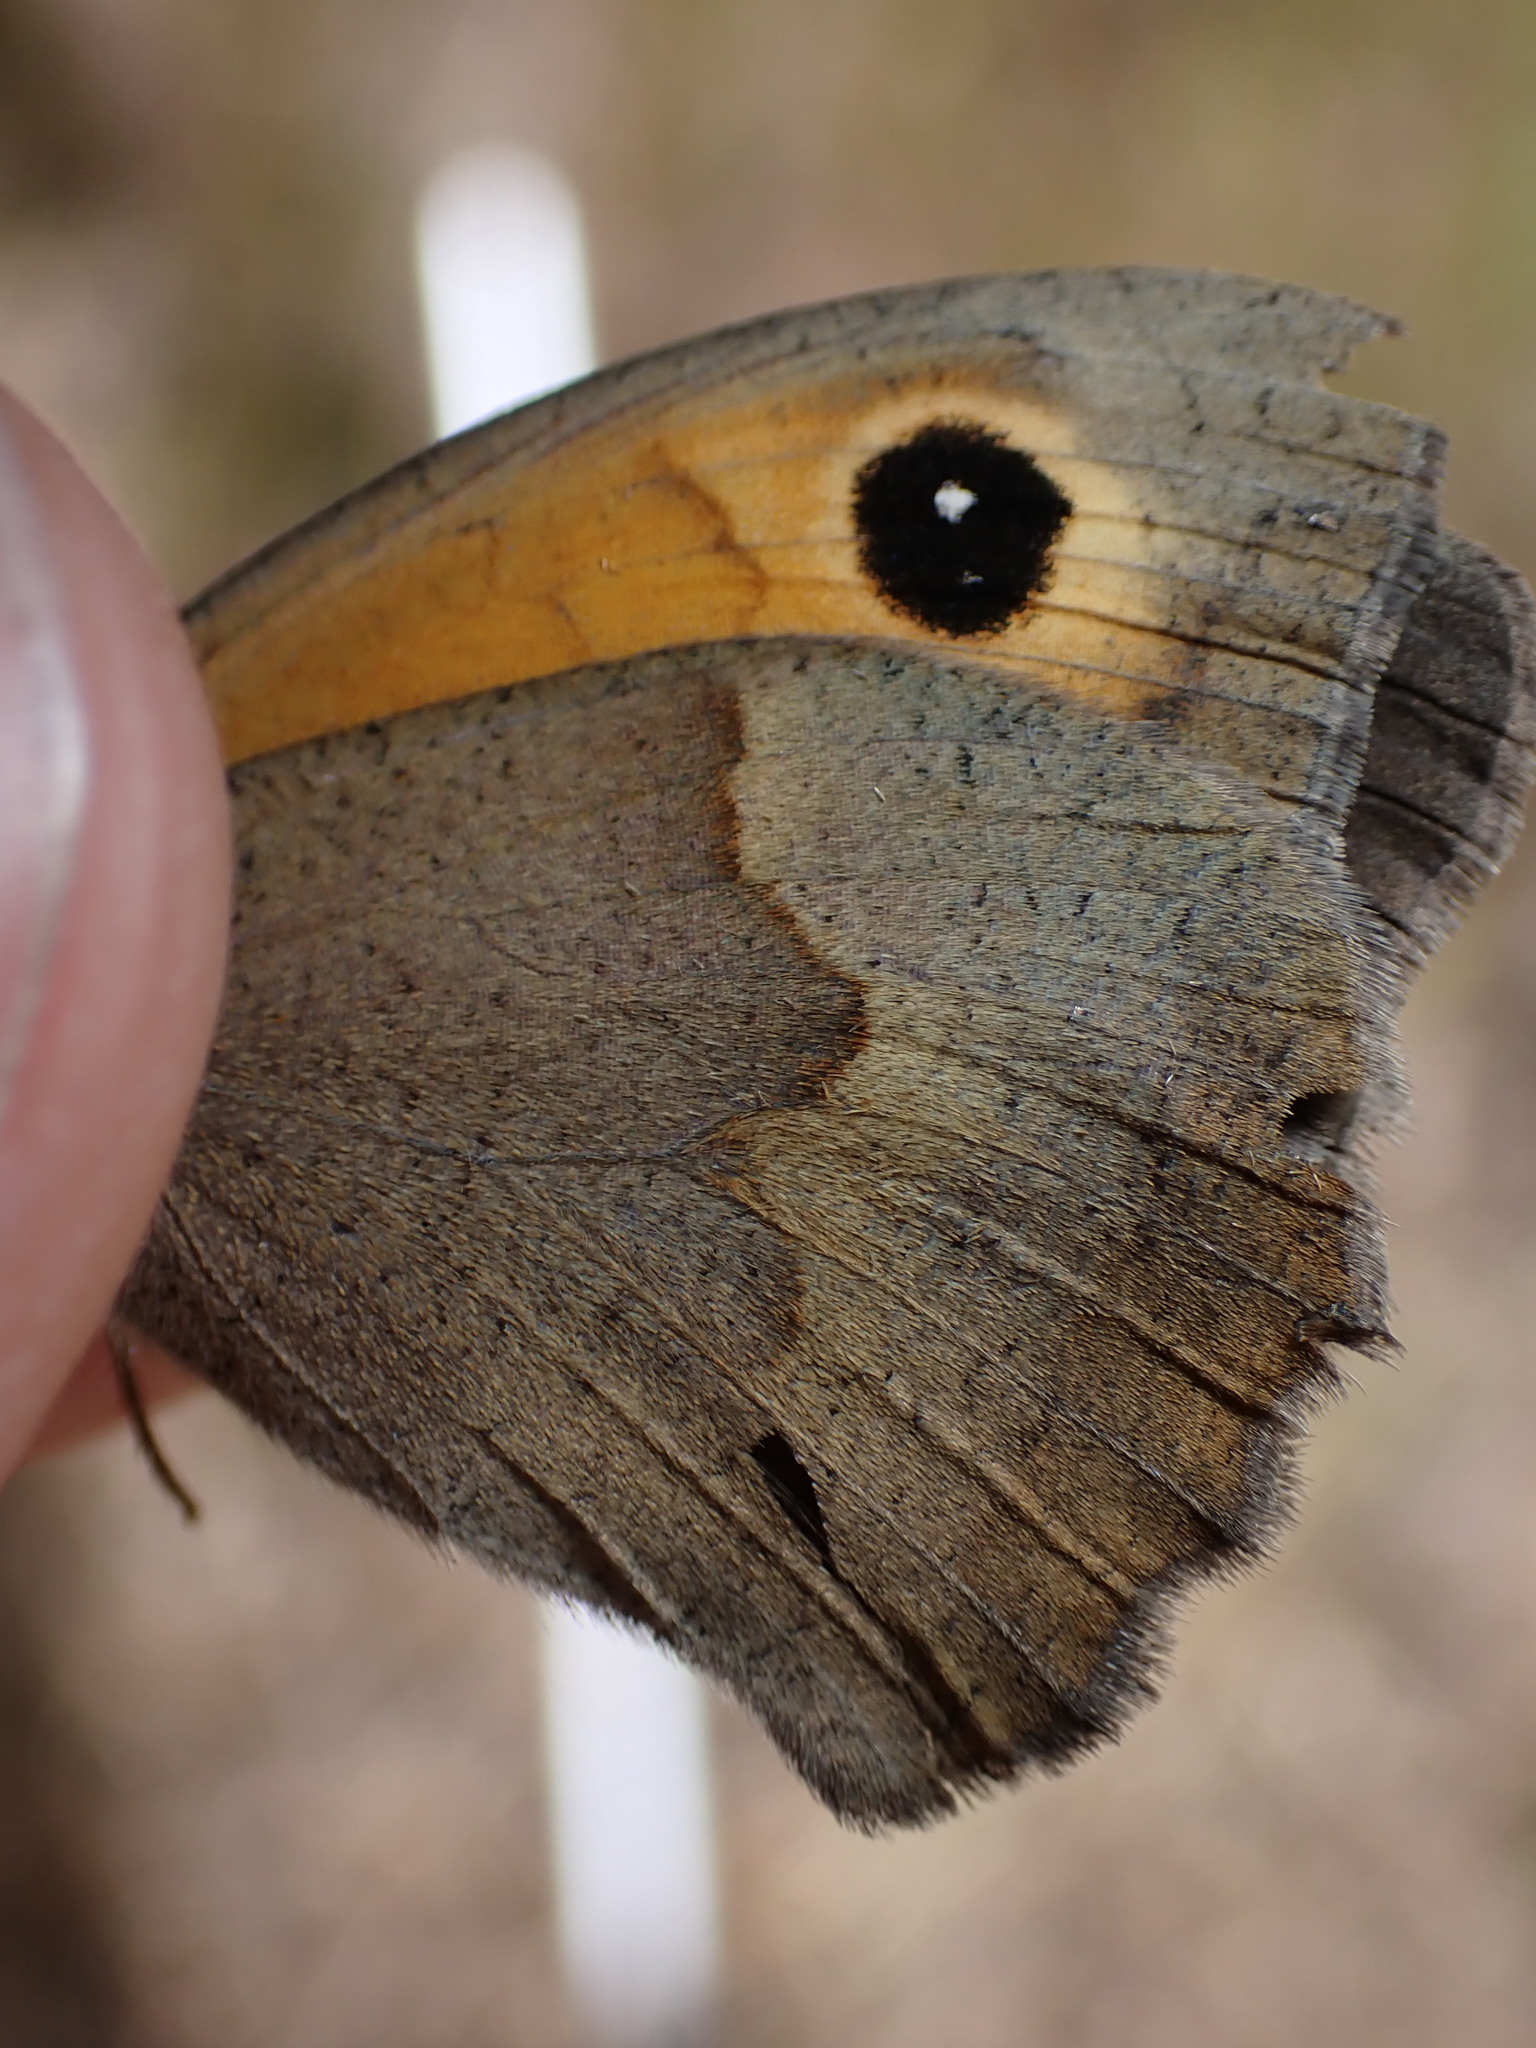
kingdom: Animalia
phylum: Arthropoda
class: Insecta
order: Lepidoptera
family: Nymphalidae
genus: Maniola
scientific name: Maniola jurtina
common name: Meadow brown
